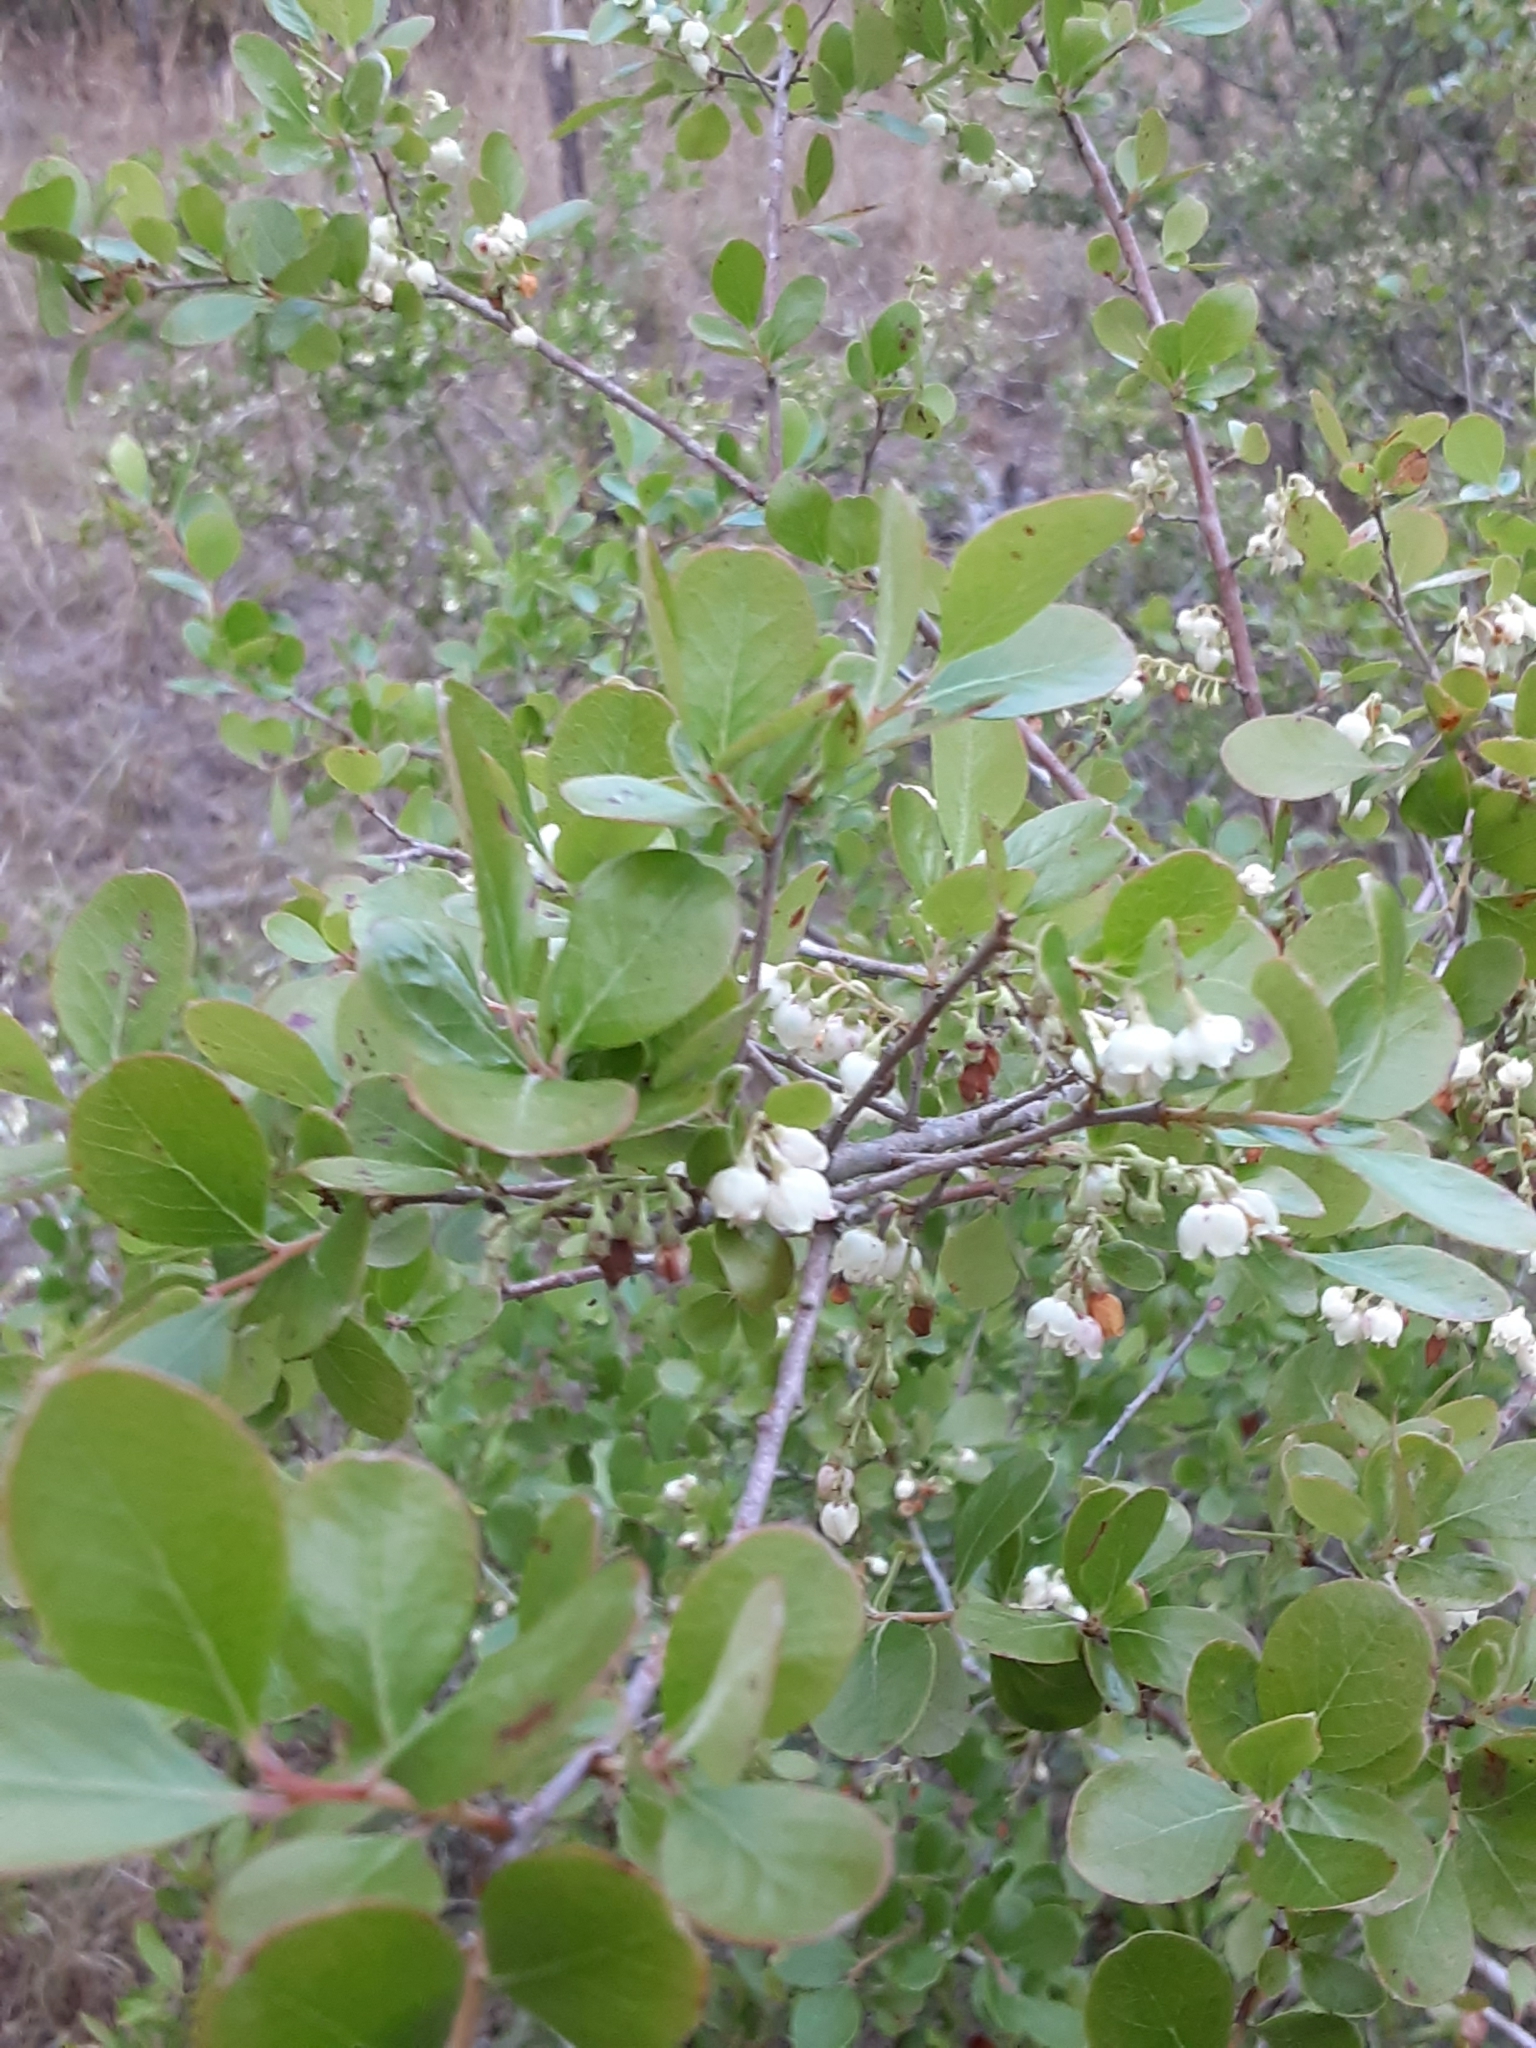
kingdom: Plantae
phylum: Tracheophyta
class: Magnoliopsida
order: Ericales
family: Ericaceae
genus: Vaccinium
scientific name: Vaccinium arboreum
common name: Farkleberry
